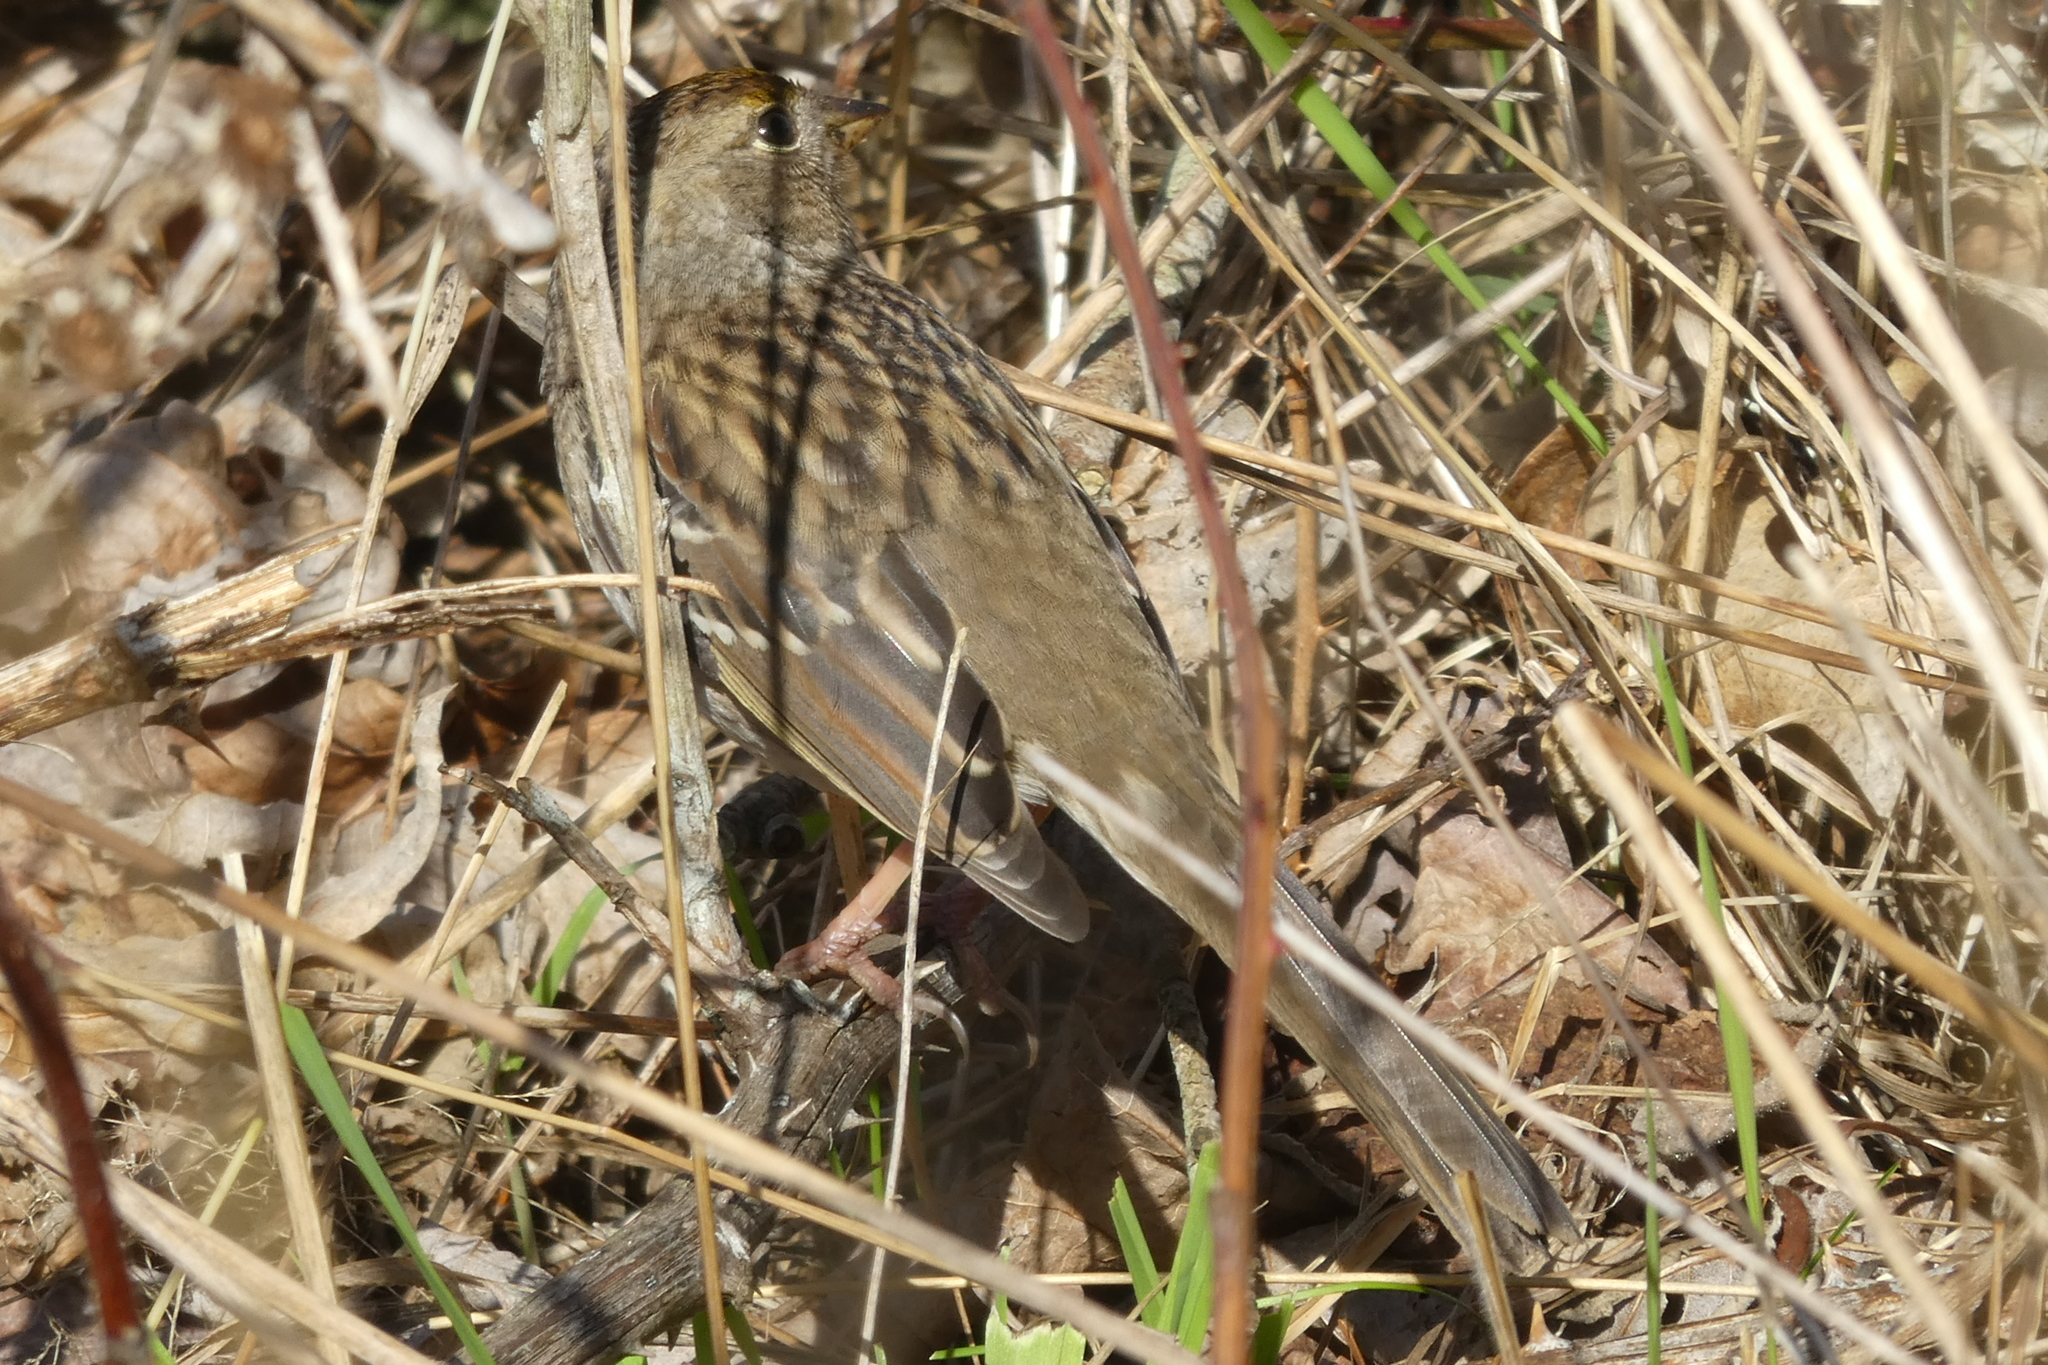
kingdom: Animalia
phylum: Chordata
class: Aves
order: Passeriformes
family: Passerellidae
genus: Zonotrichia
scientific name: Zonotrichia atricapilla
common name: Golden-crowned sparrow
